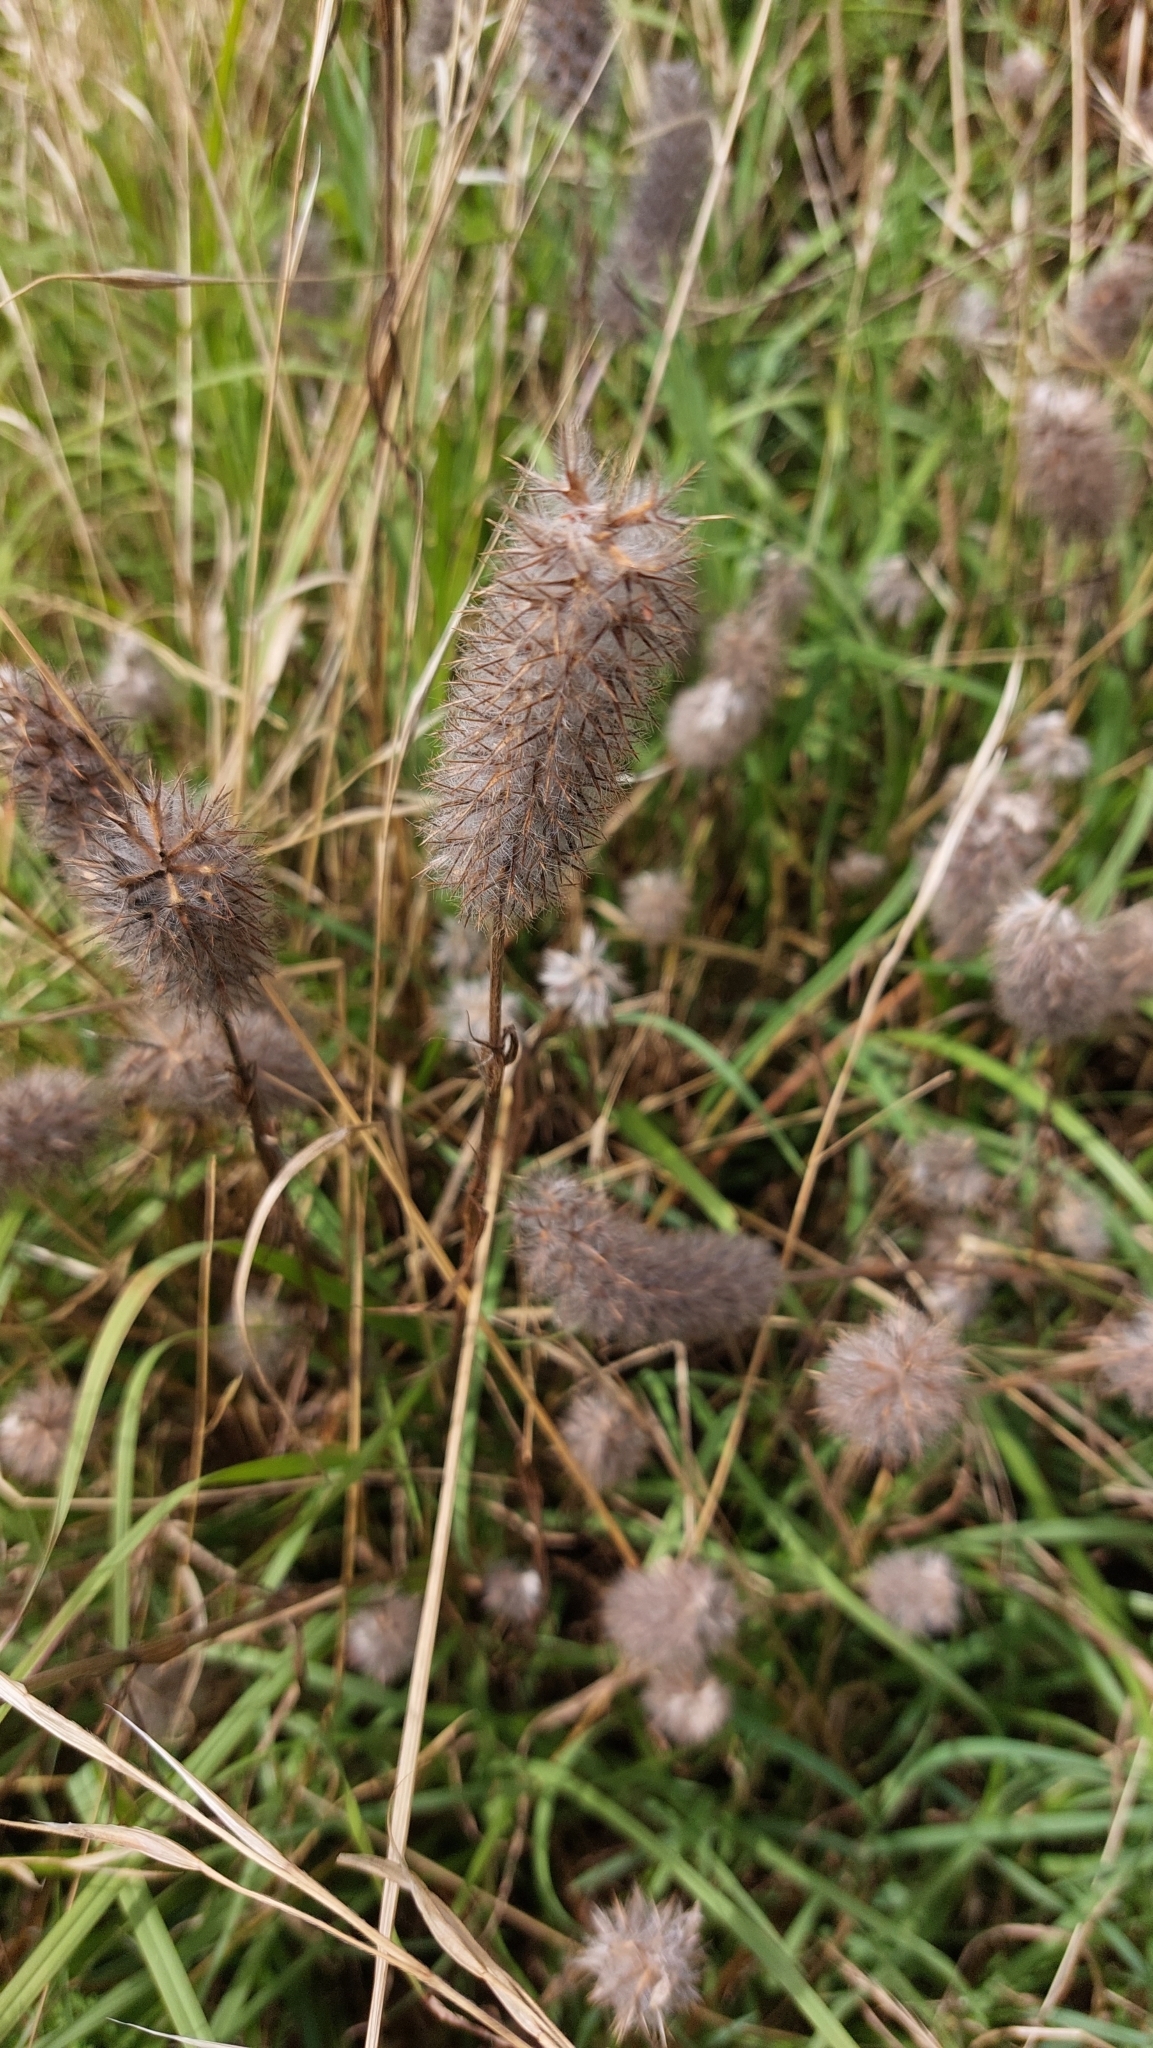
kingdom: Plantae
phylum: Tracheophyta
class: Magnoliopsida
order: Fabales
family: Fabaceae
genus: Trifolium
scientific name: Trifolium angustifolium
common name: Narrow clover
